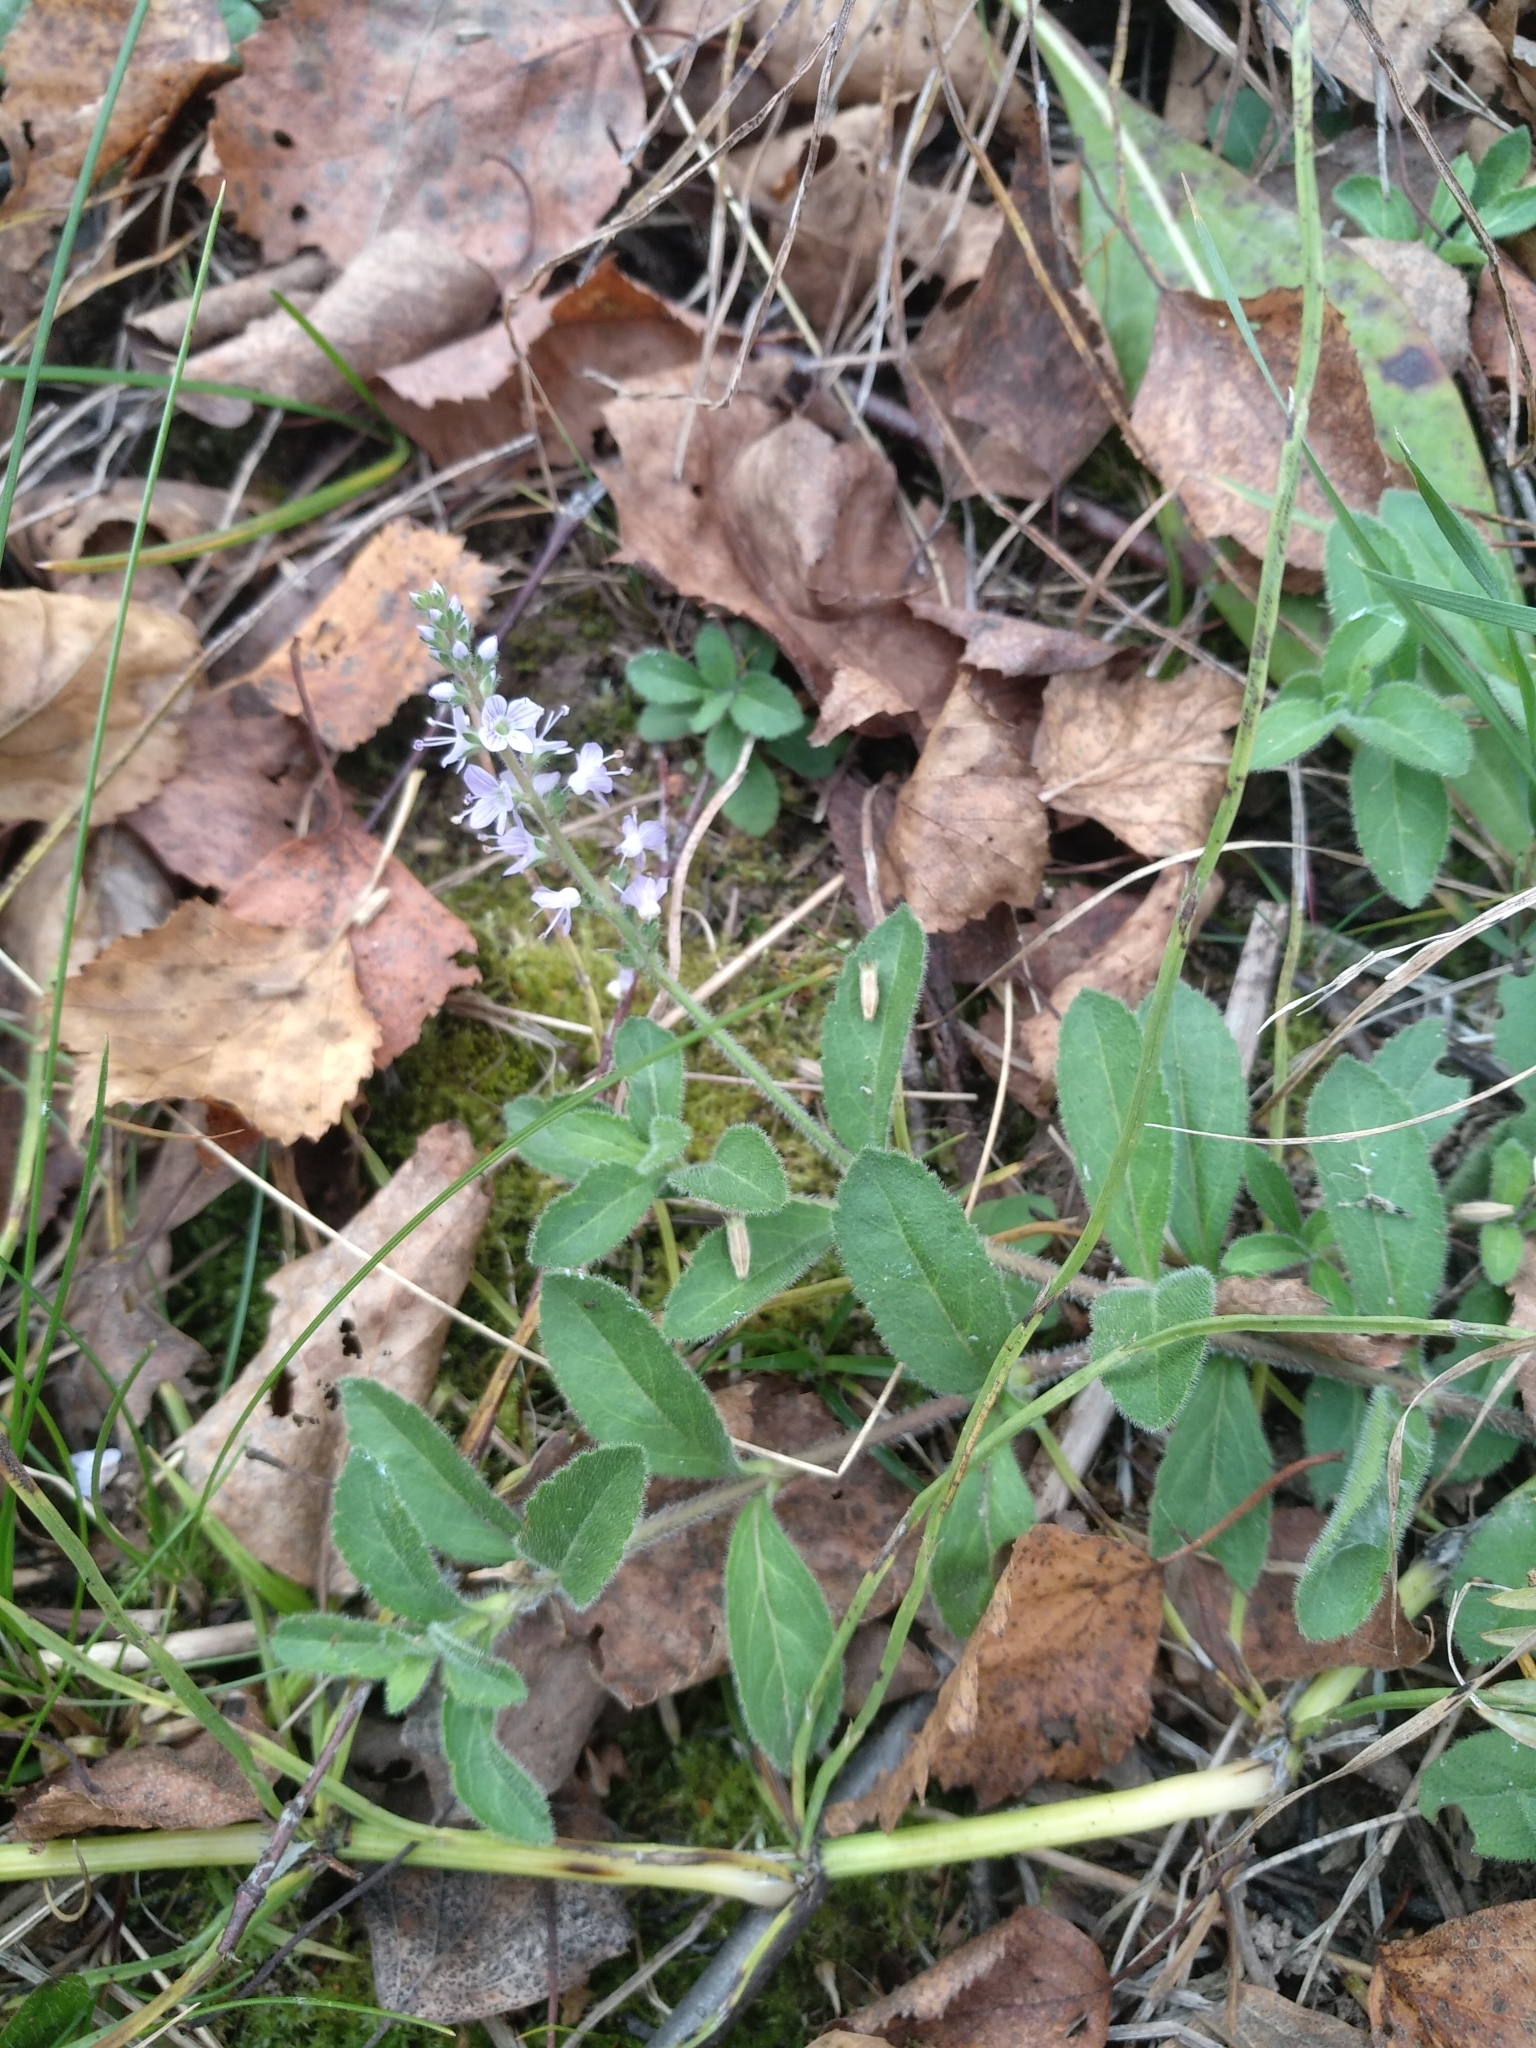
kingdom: Plantae
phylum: Tracheophyta
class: Magnoliopsida
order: Lamiales
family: Plantaginaceae
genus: Veronica
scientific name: Veronica officinalis
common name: Common speedwell
